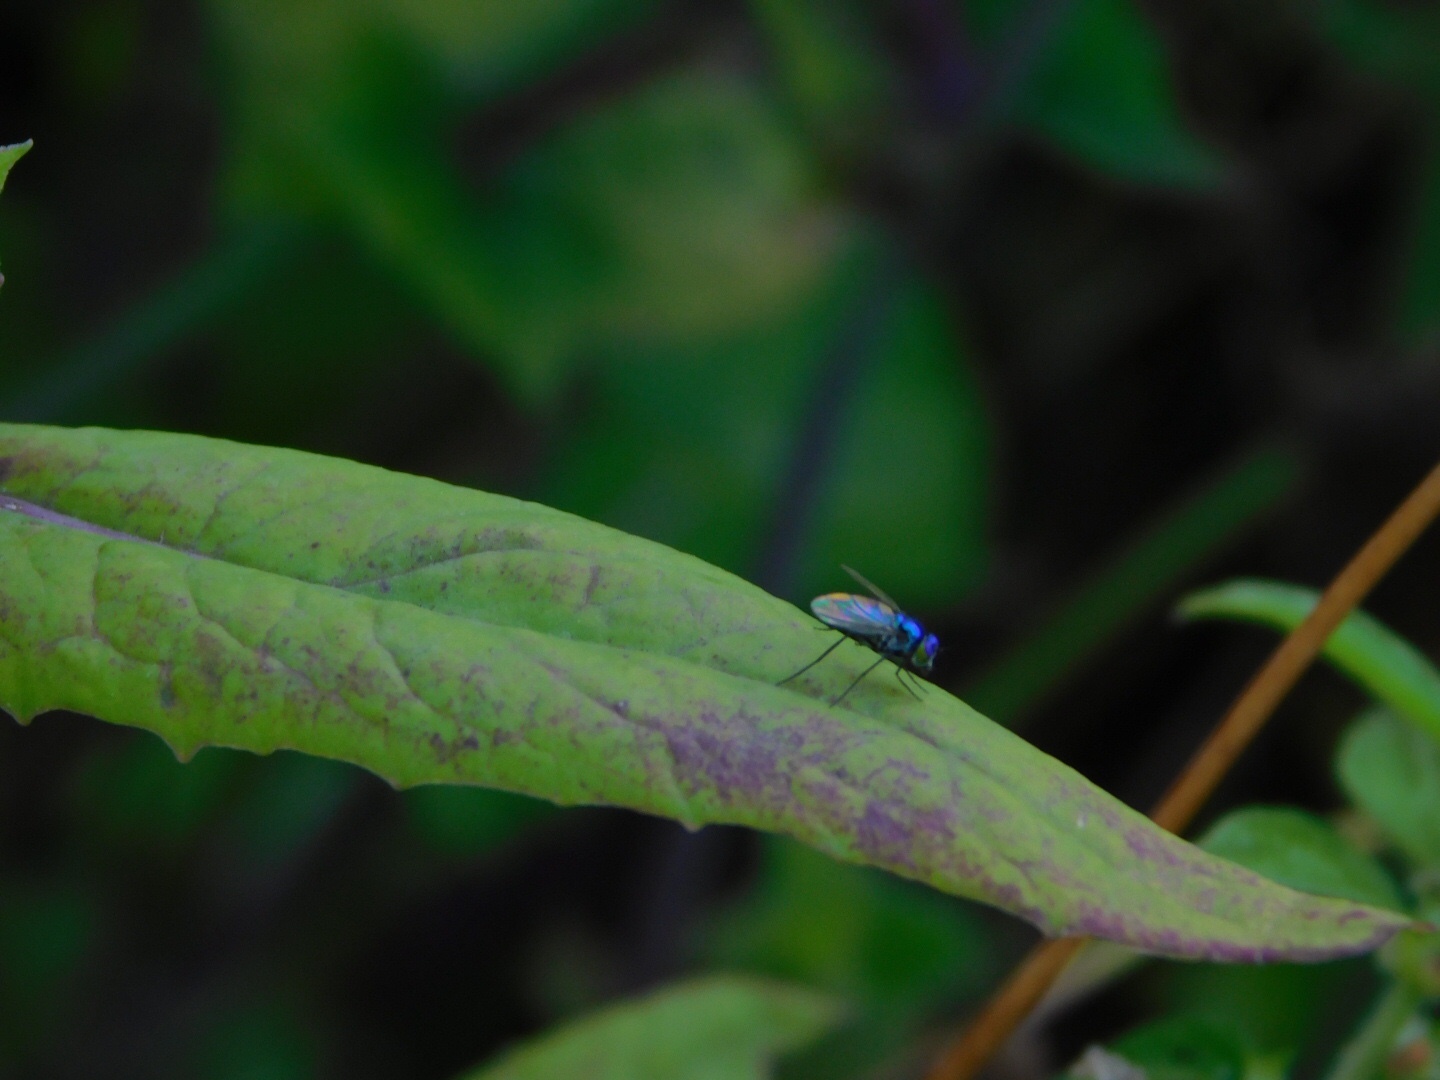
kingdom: Animalia
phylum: Arthropoda
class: Insecta
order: Diptera
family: Dolichopodidae
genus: Condylostylus
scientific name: Condylostylus mundus
